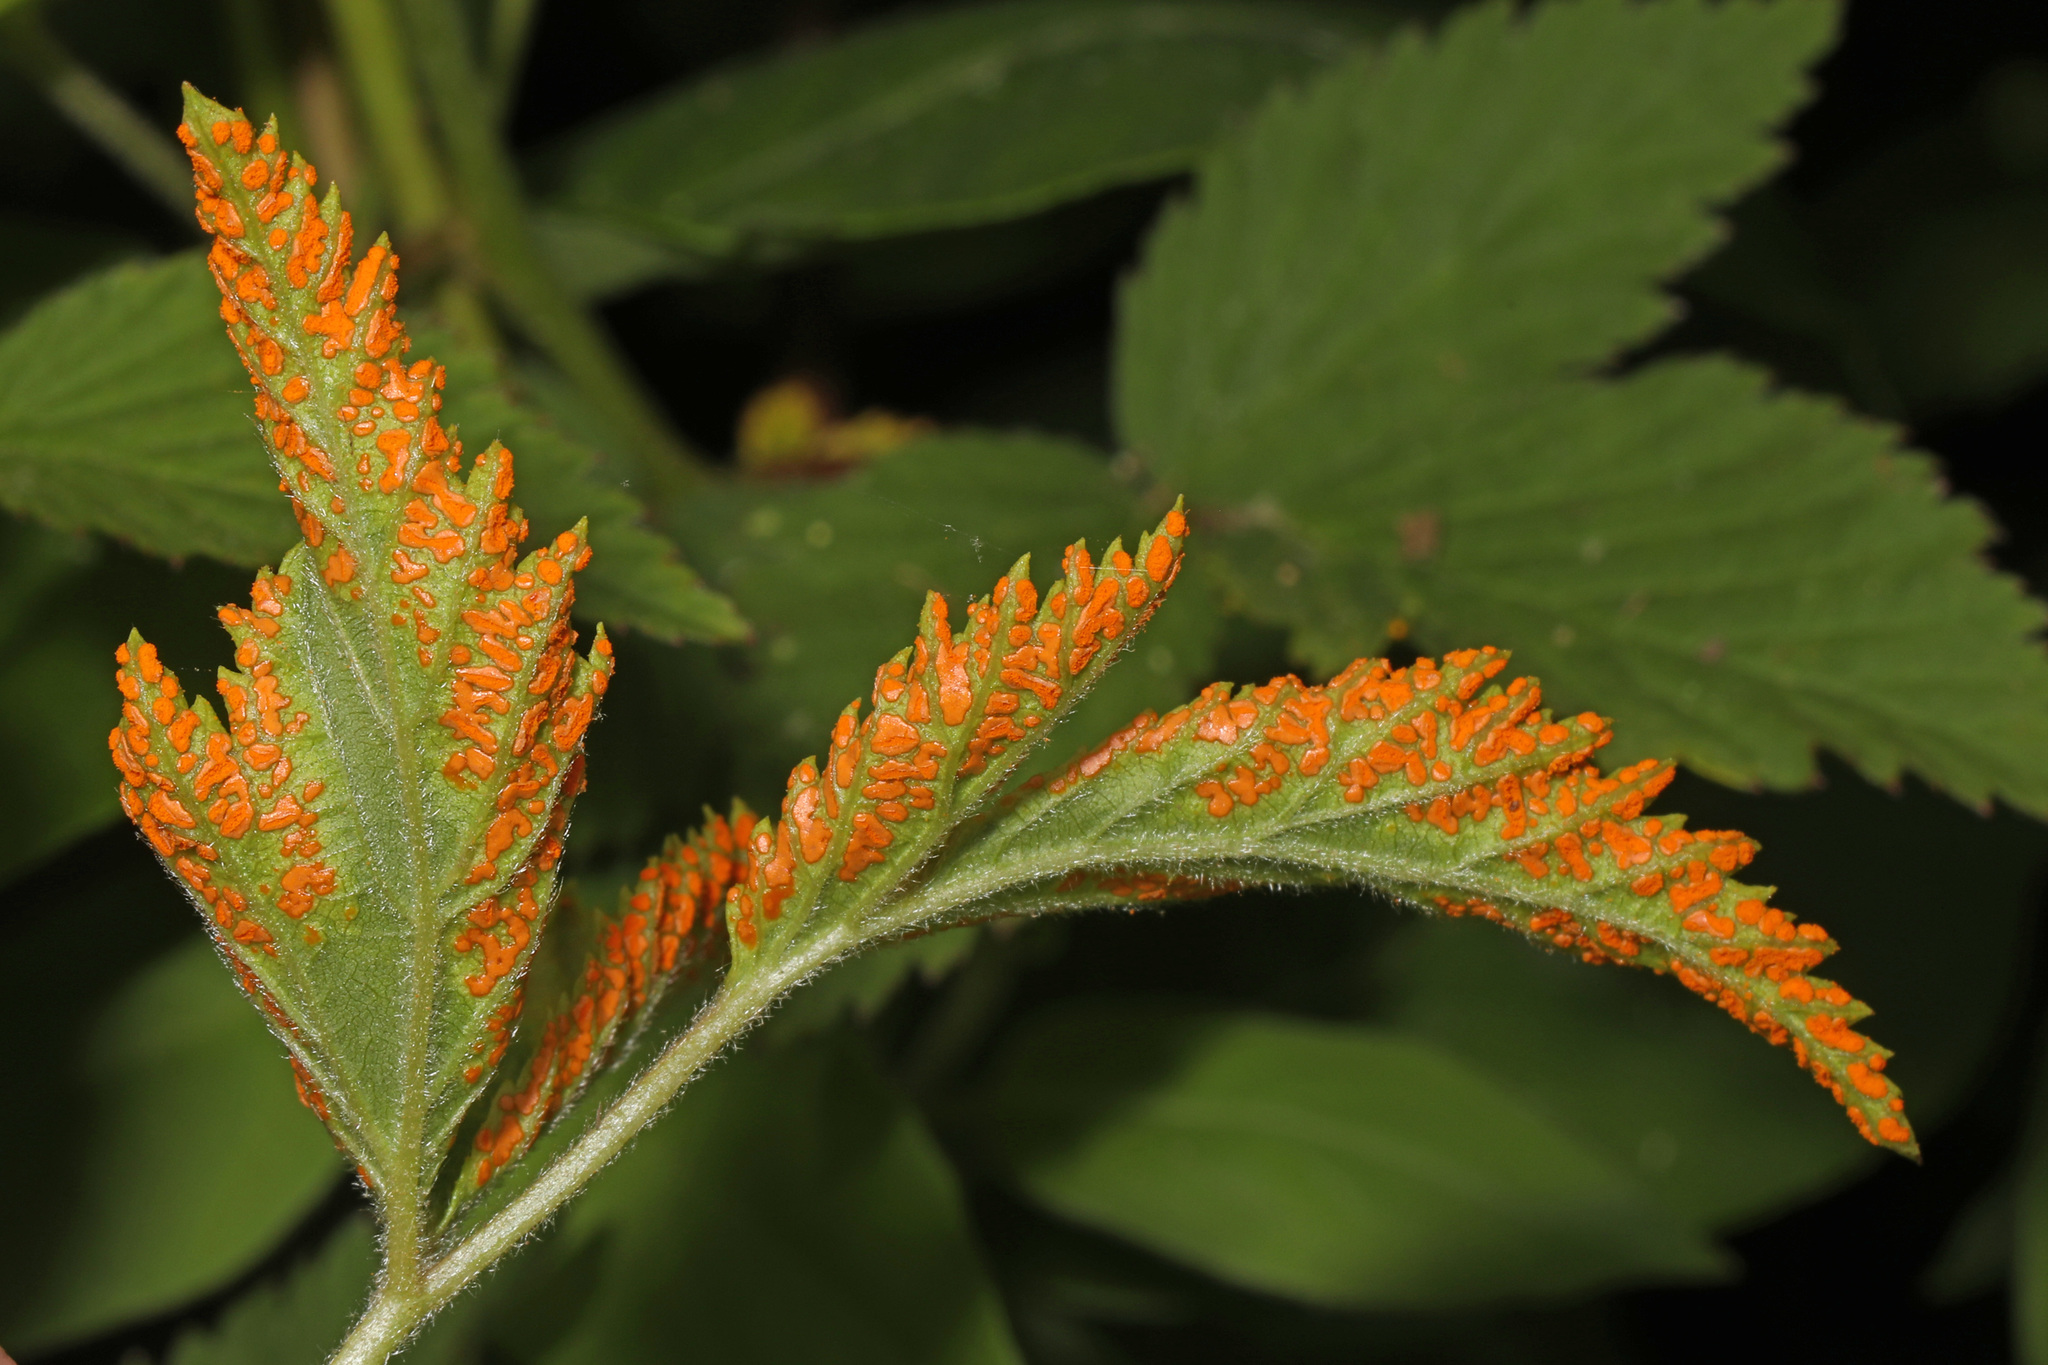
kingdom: Fungi
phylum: Basidiomycota
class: Pucciniomycetes
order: Pucciniales
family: Phragmidiaceae
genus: Gymnoconia
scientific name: Gymnoconia nitens
